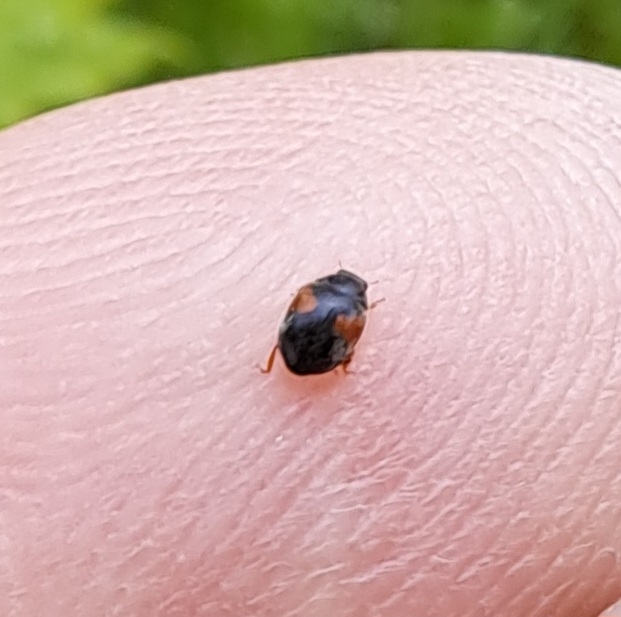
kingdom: Animalia
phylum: Arthropoda
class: Insecta
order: Coleoptera
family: Coccinellidae
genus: Scymnus
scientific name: Scymnus interruptus
